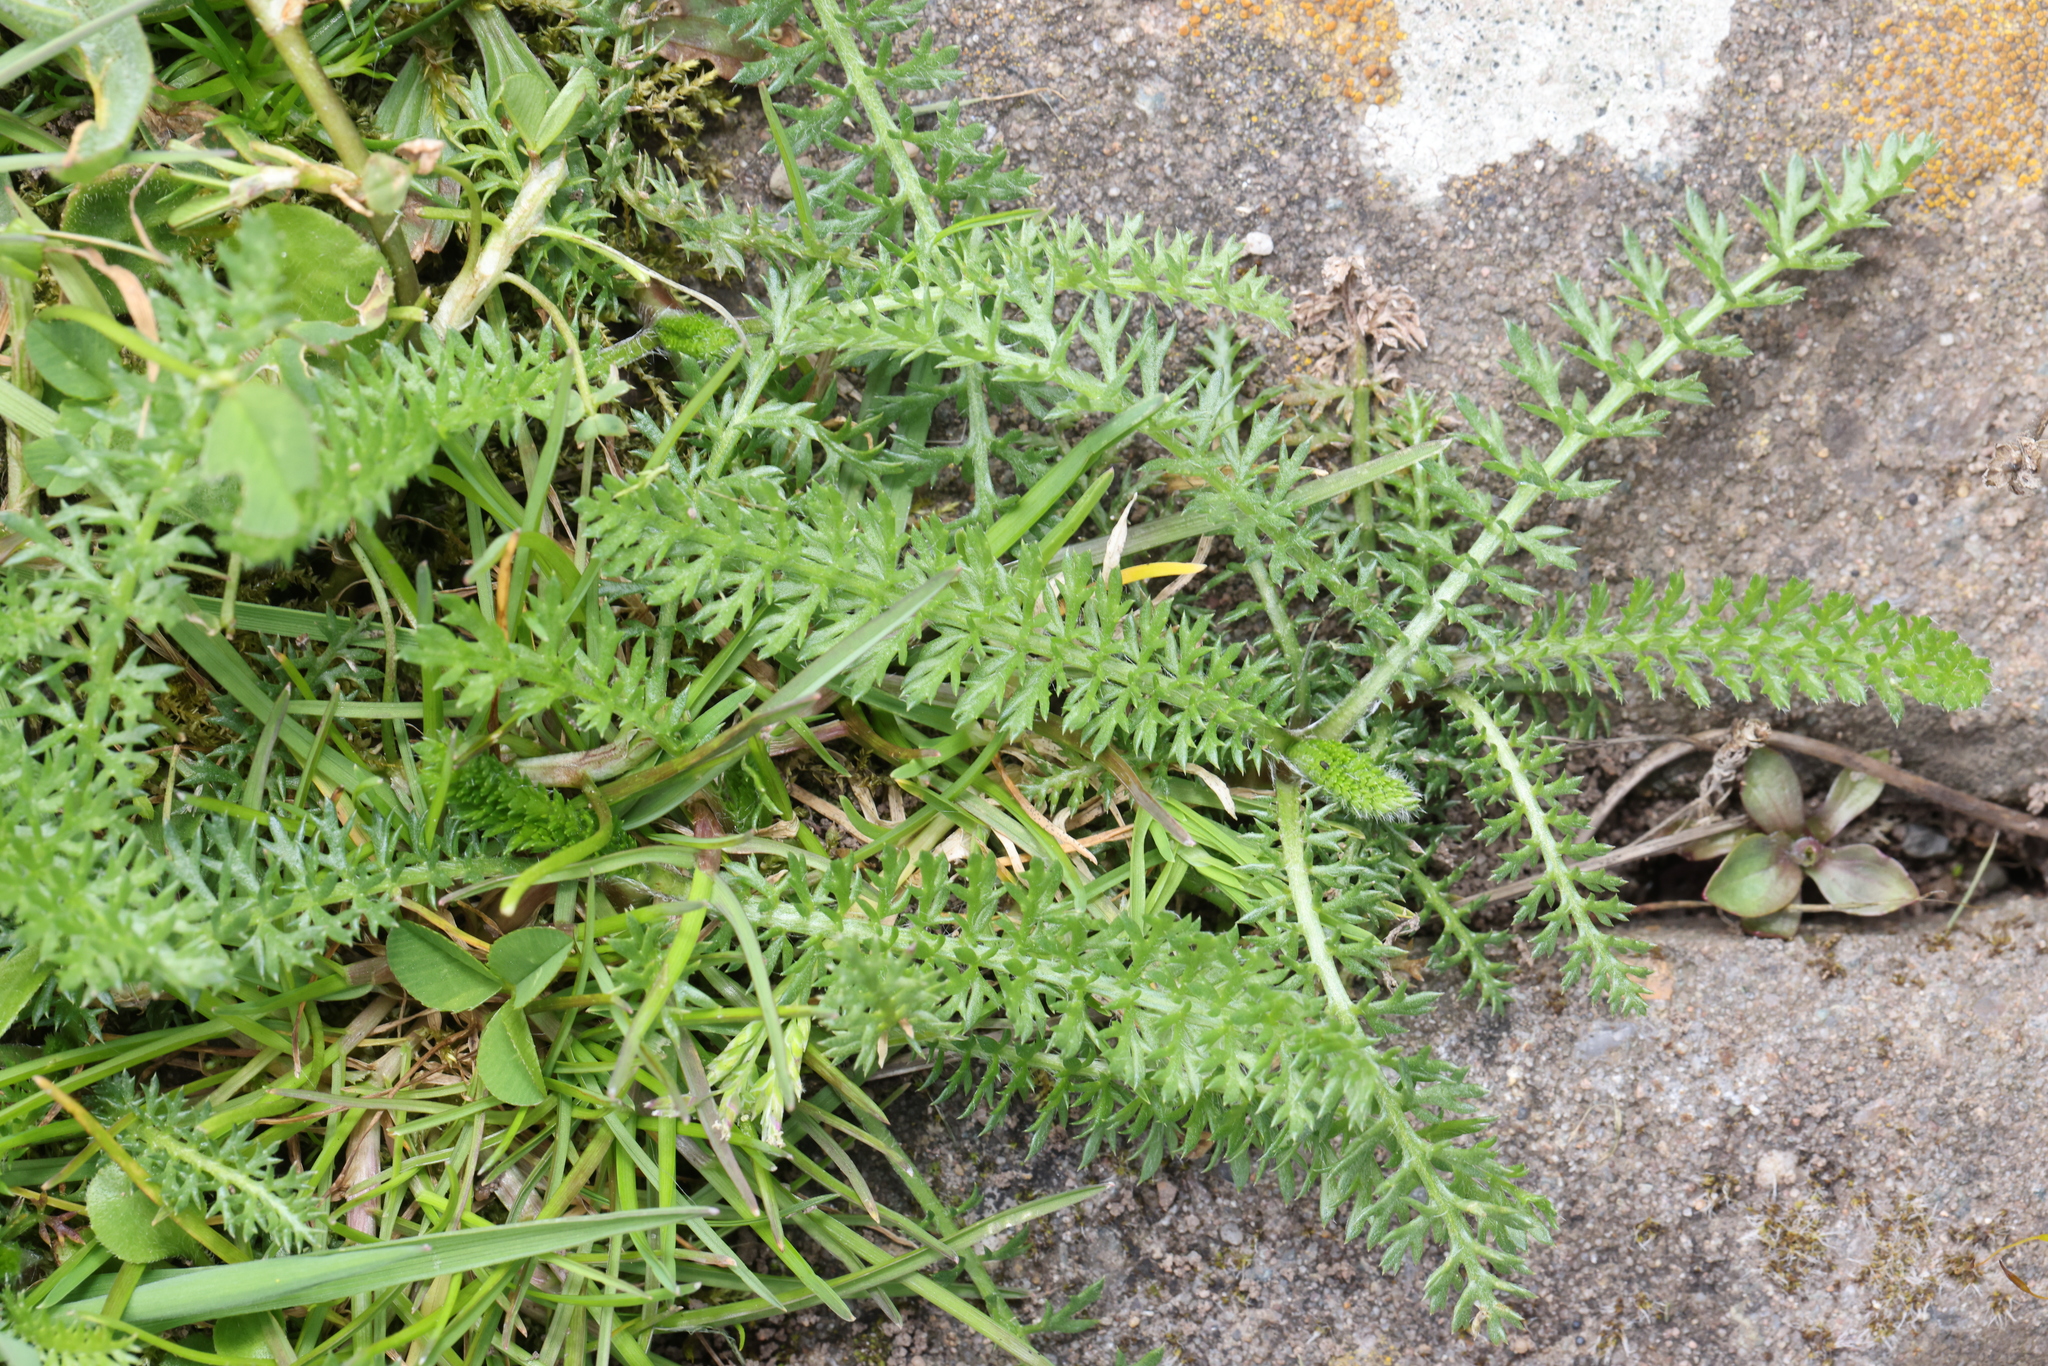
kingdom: Plantae
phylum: Tracheophyta
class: Magnoliopsida
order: Asterales
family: Asteraceae
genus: Achillea
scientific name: Achillea millefolium
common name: Yarrow
